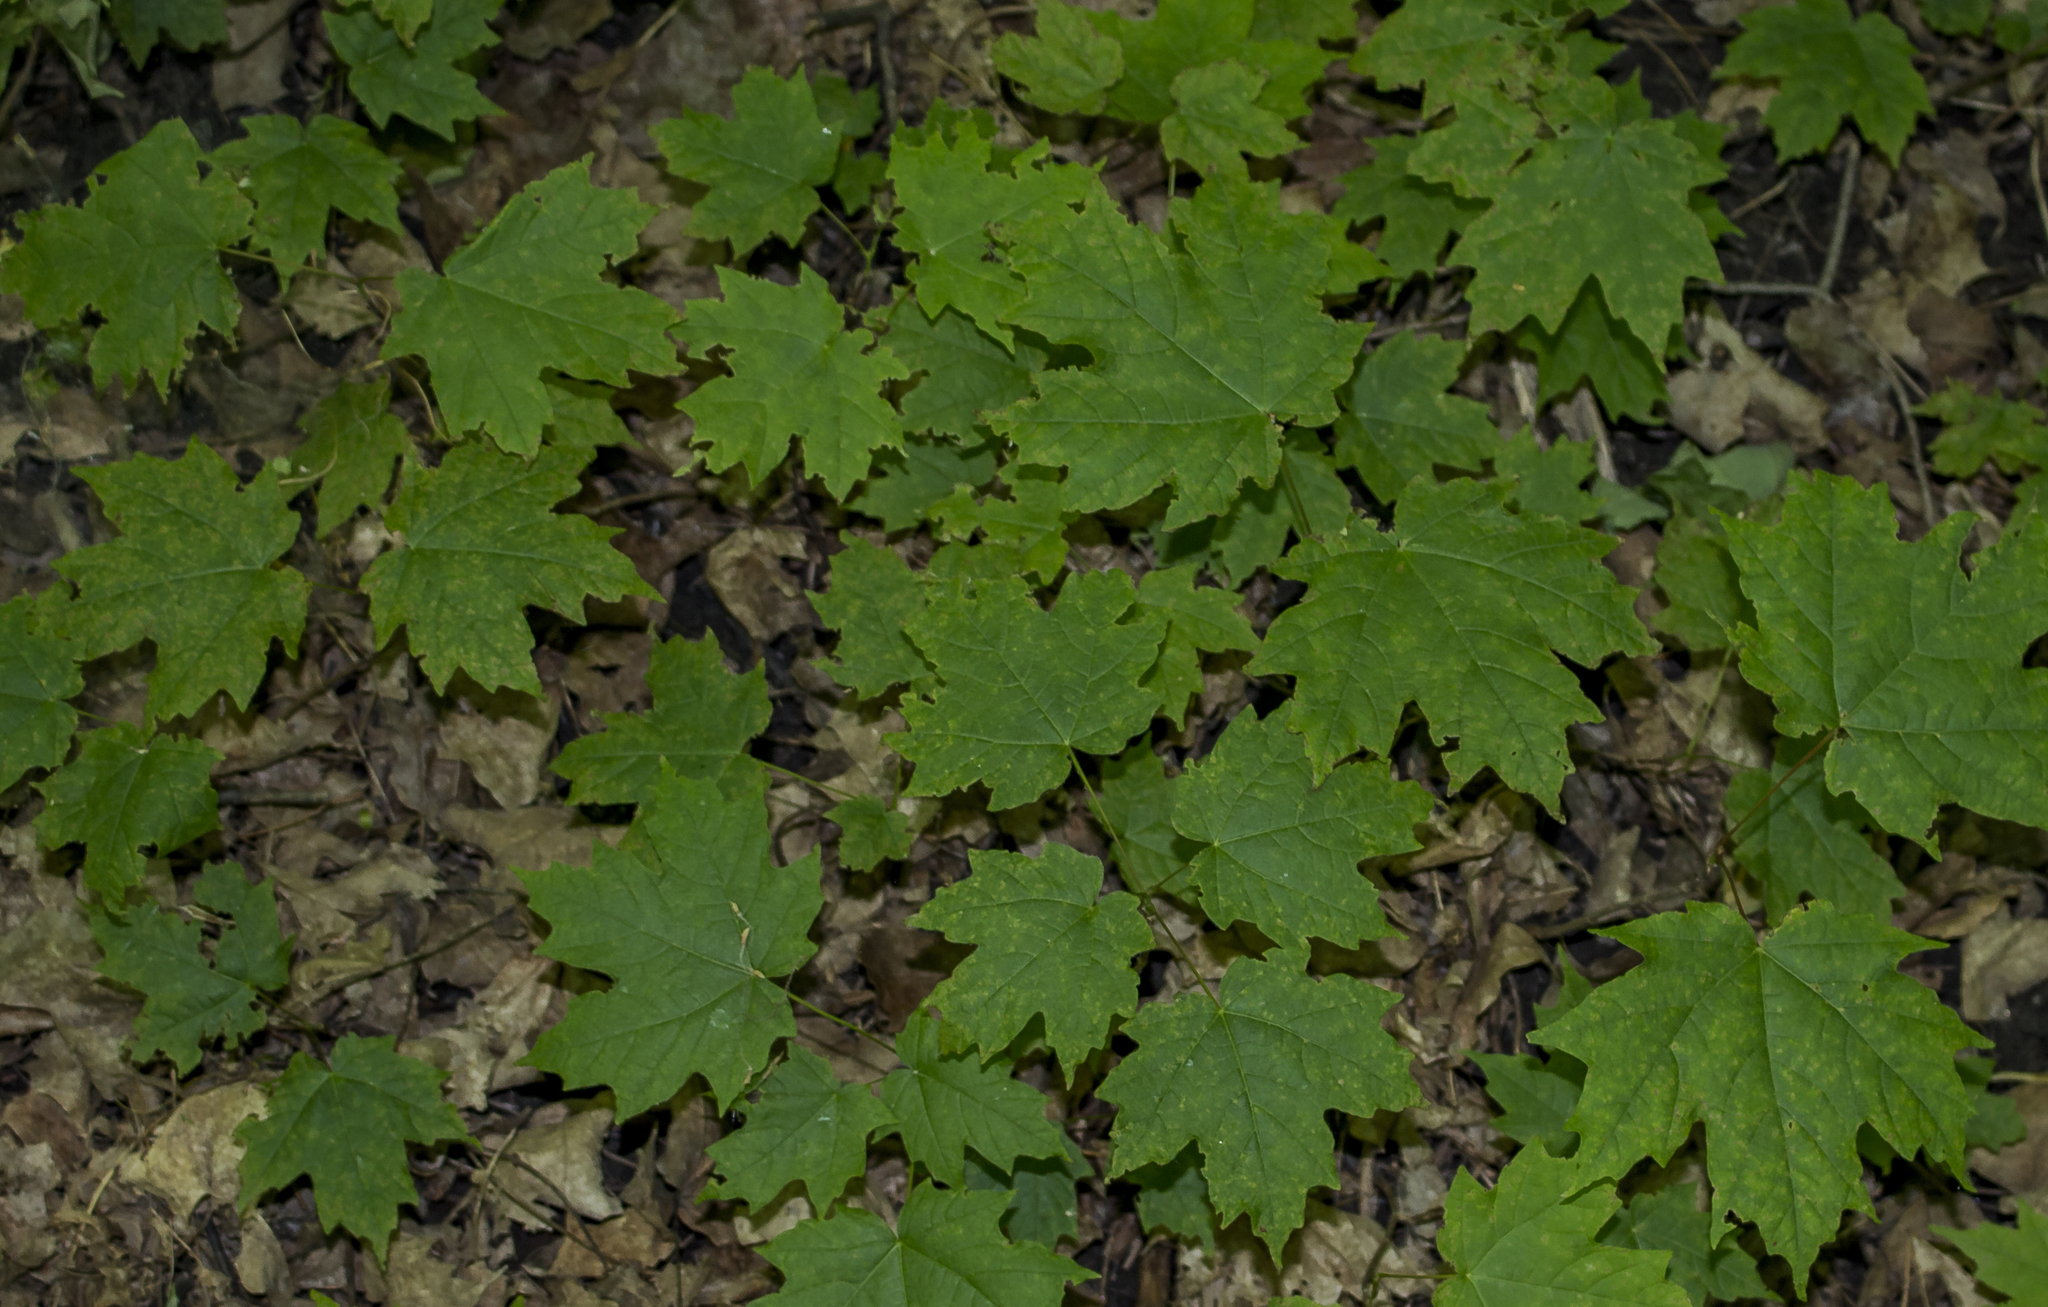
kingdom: Plantae
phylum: Tracheophyta
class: Magnoliopsida
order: Sapindales
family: Sapindaceae
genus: Acer
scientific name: Acer saccharum
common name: Sugar maple
